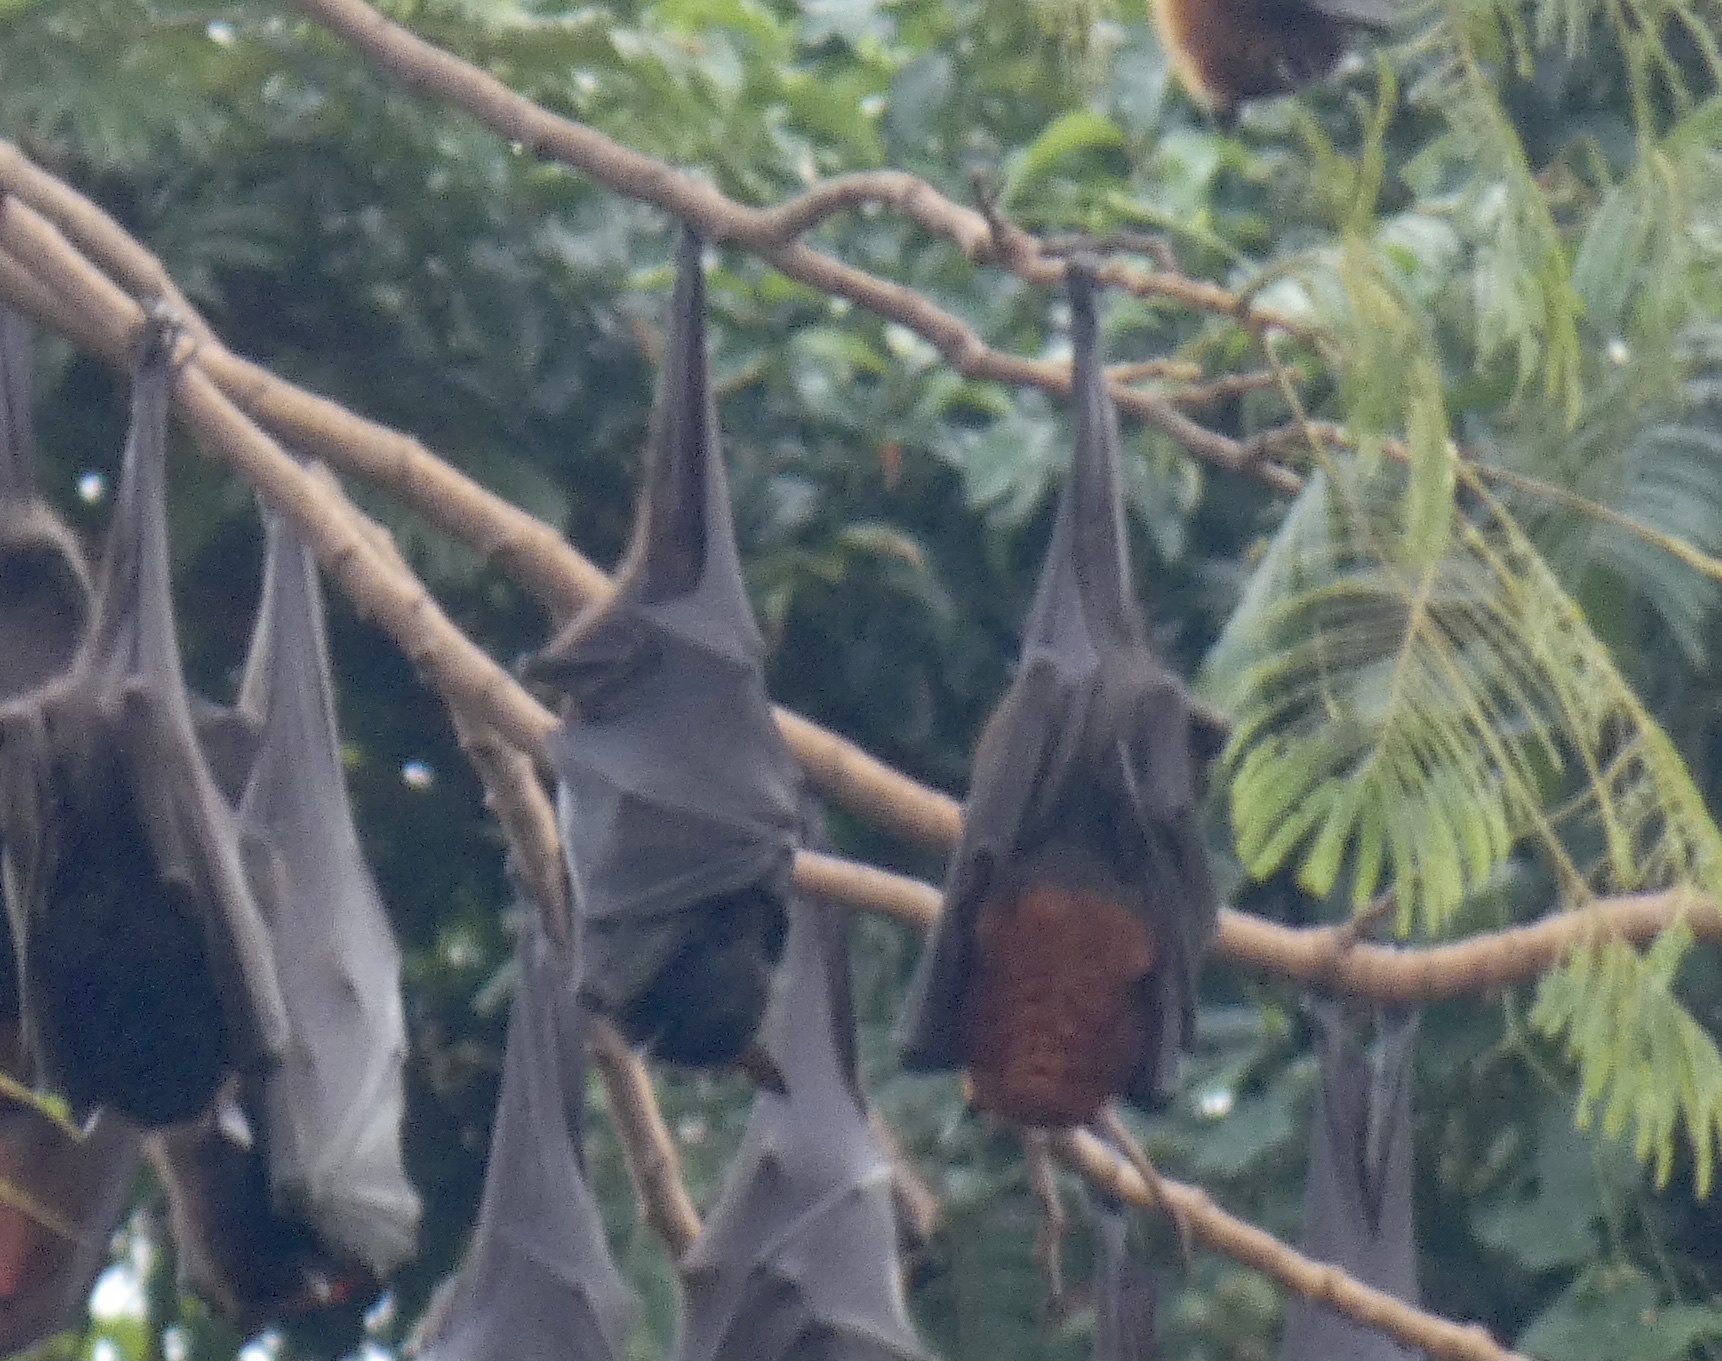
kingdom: Animalia
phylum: Chordata
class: Mammalia
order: Chiroptera
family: Pteropodidae
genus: Pteropus
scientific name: Pteropus vampyrus
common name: Large flying fox
